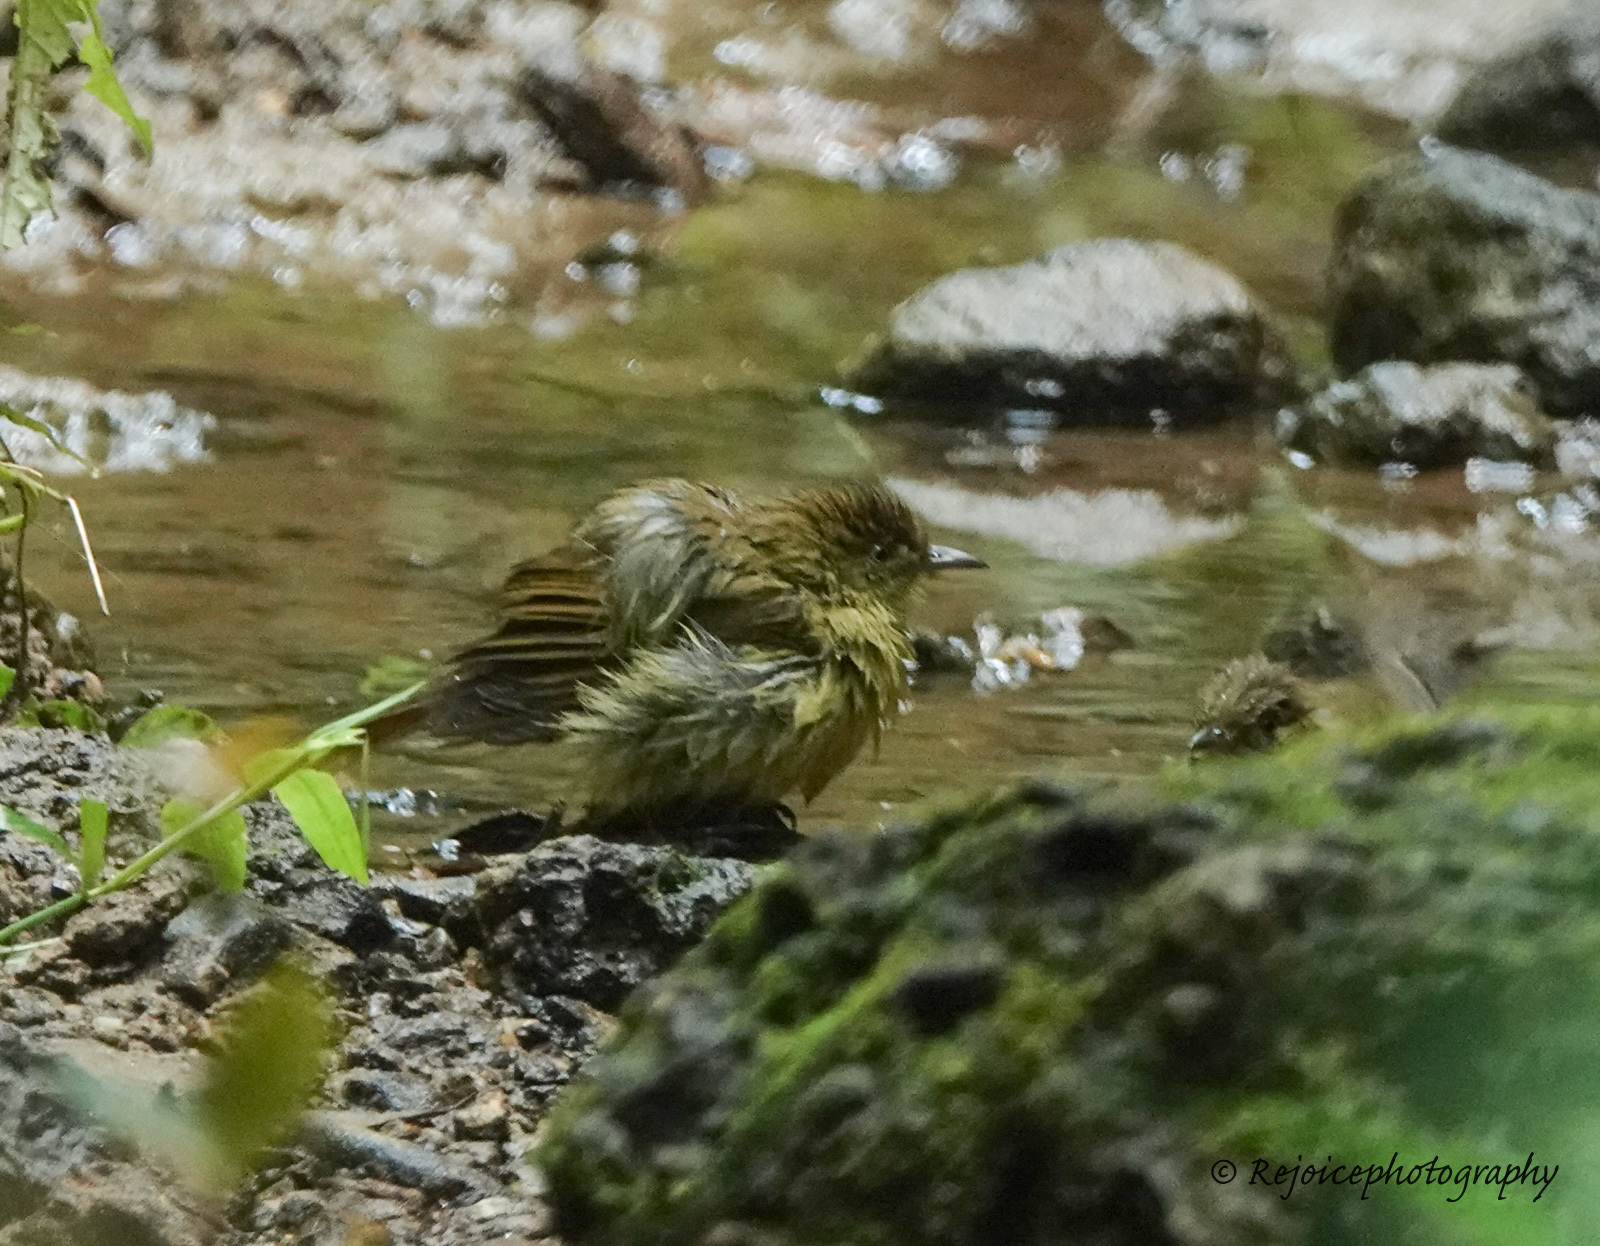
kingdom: Animalia
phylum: Chordata
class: Aves
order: Passeriformes
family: Pycnonotidae
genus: Iole
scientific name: Iole virescens
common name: Olive bulbul
